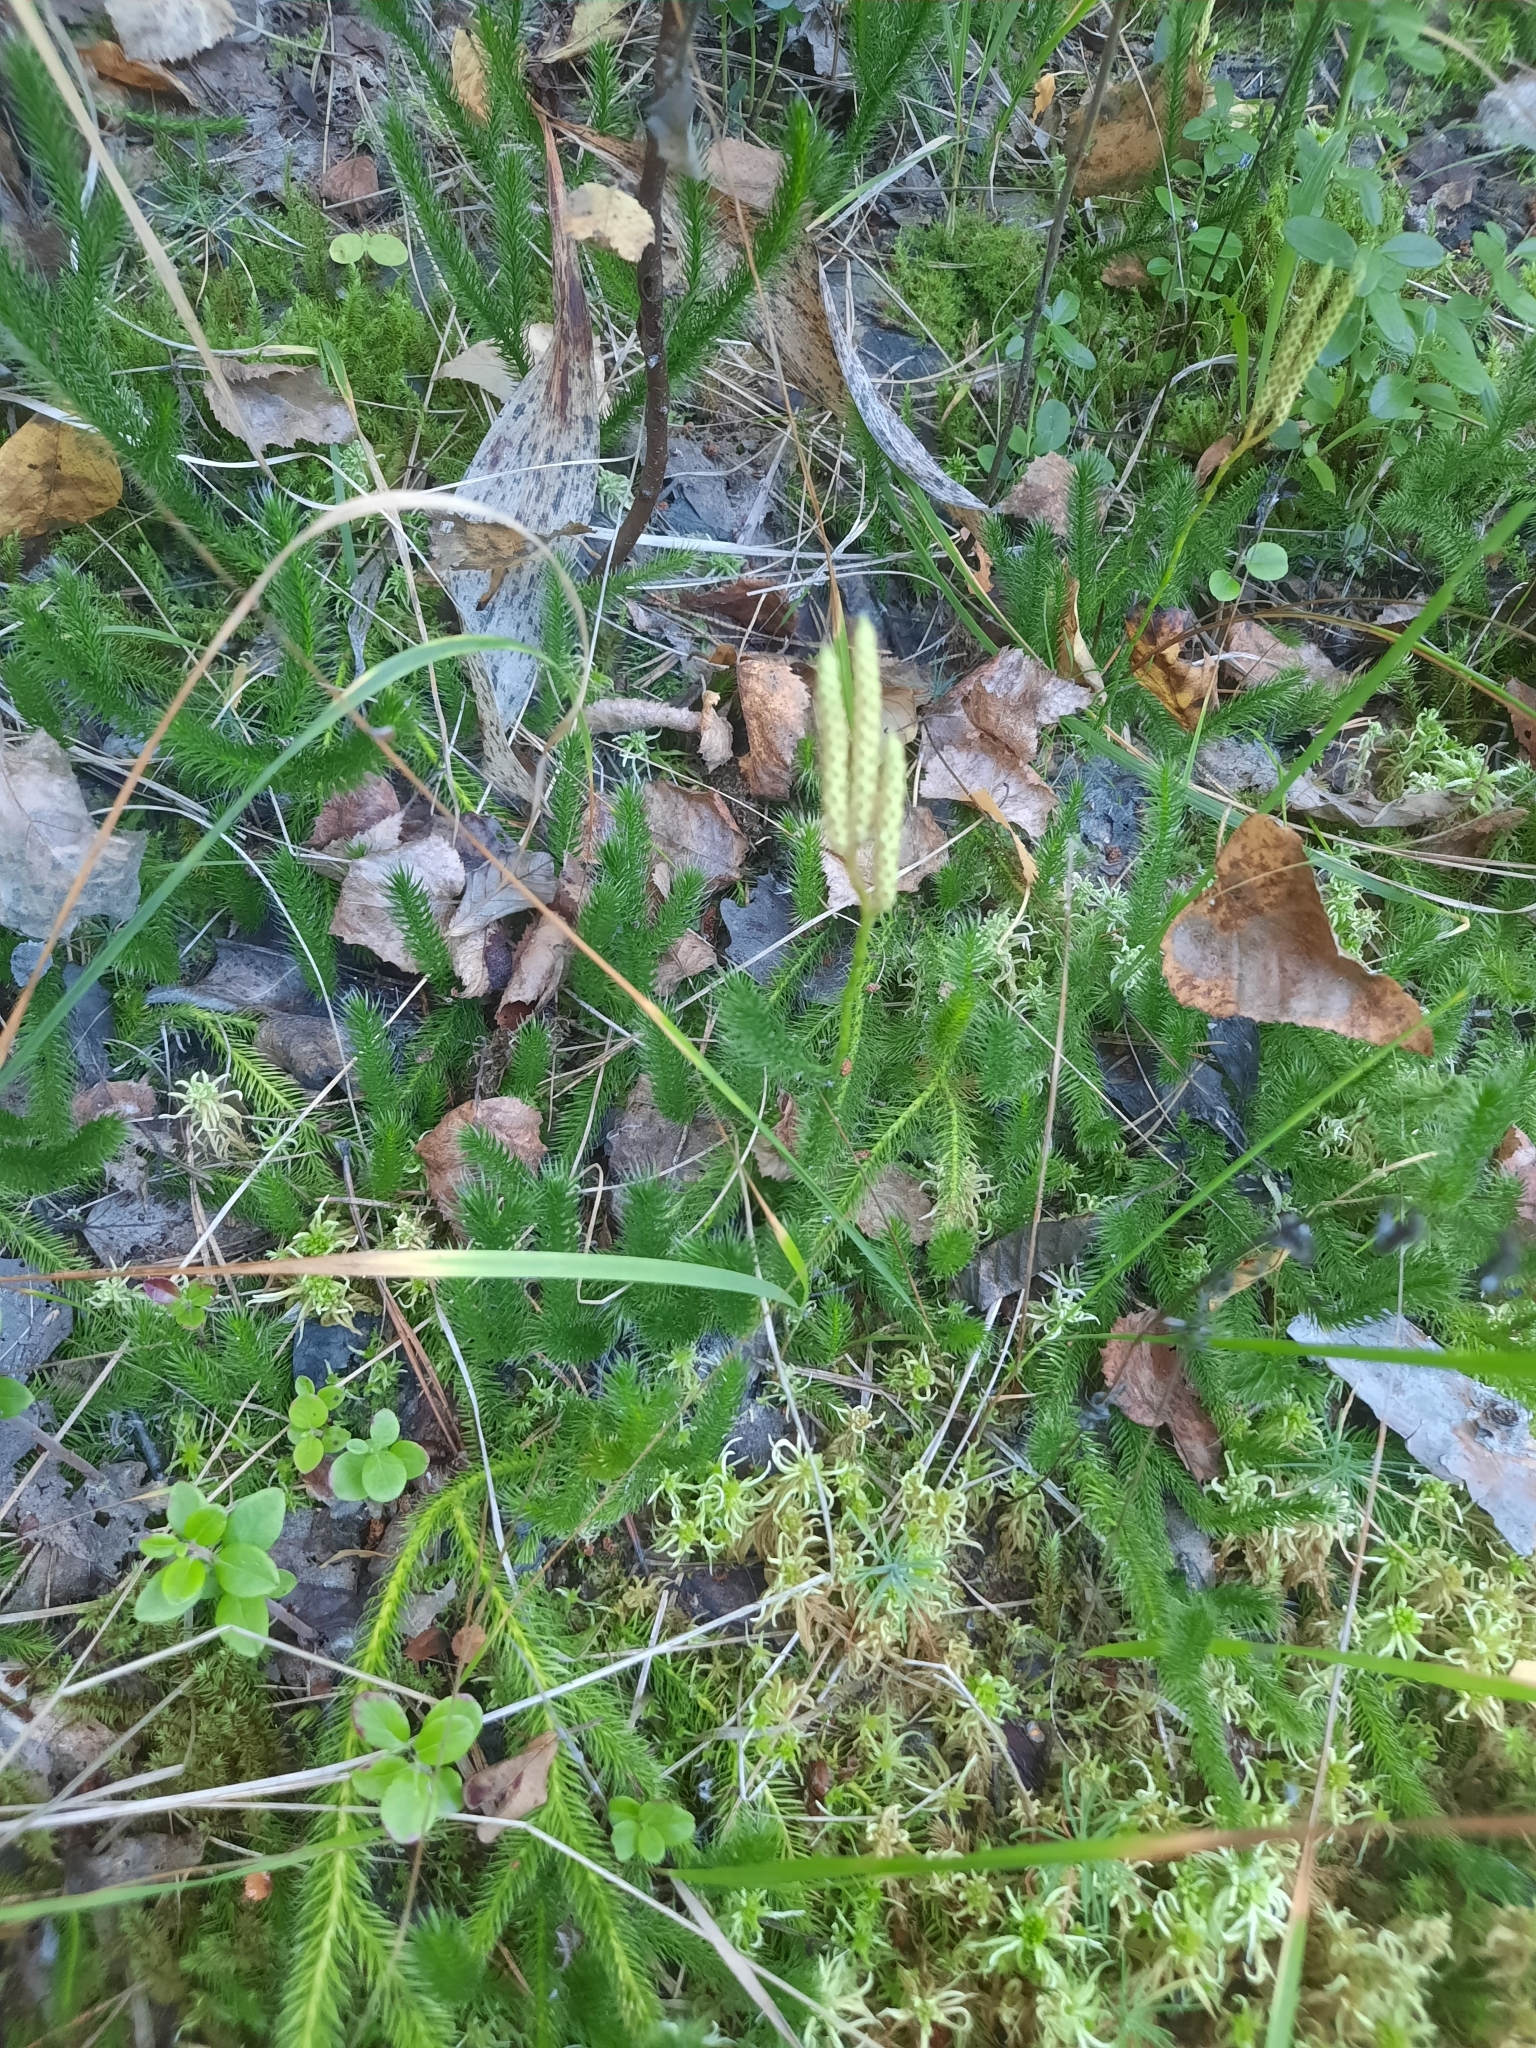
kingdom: Plantae
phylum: Tracheophyta
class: Lycopodiopsida
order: Lycopodiales
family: Lycopodiaceae
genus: Lycopodium
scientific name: Lycopodium clavatum
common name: Stag's-horn clubmoss
